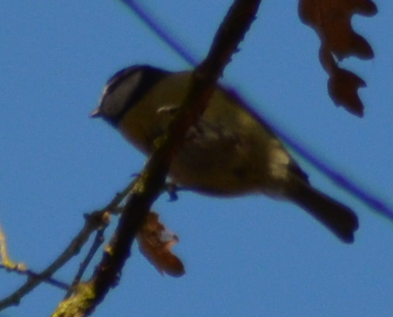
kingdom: Animalia
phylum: Chordata
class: Aves
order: Passeriformes
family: Paridae
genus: Cyanistes
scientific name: Cyanistes caeruleus
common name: Eurasian blue tit
